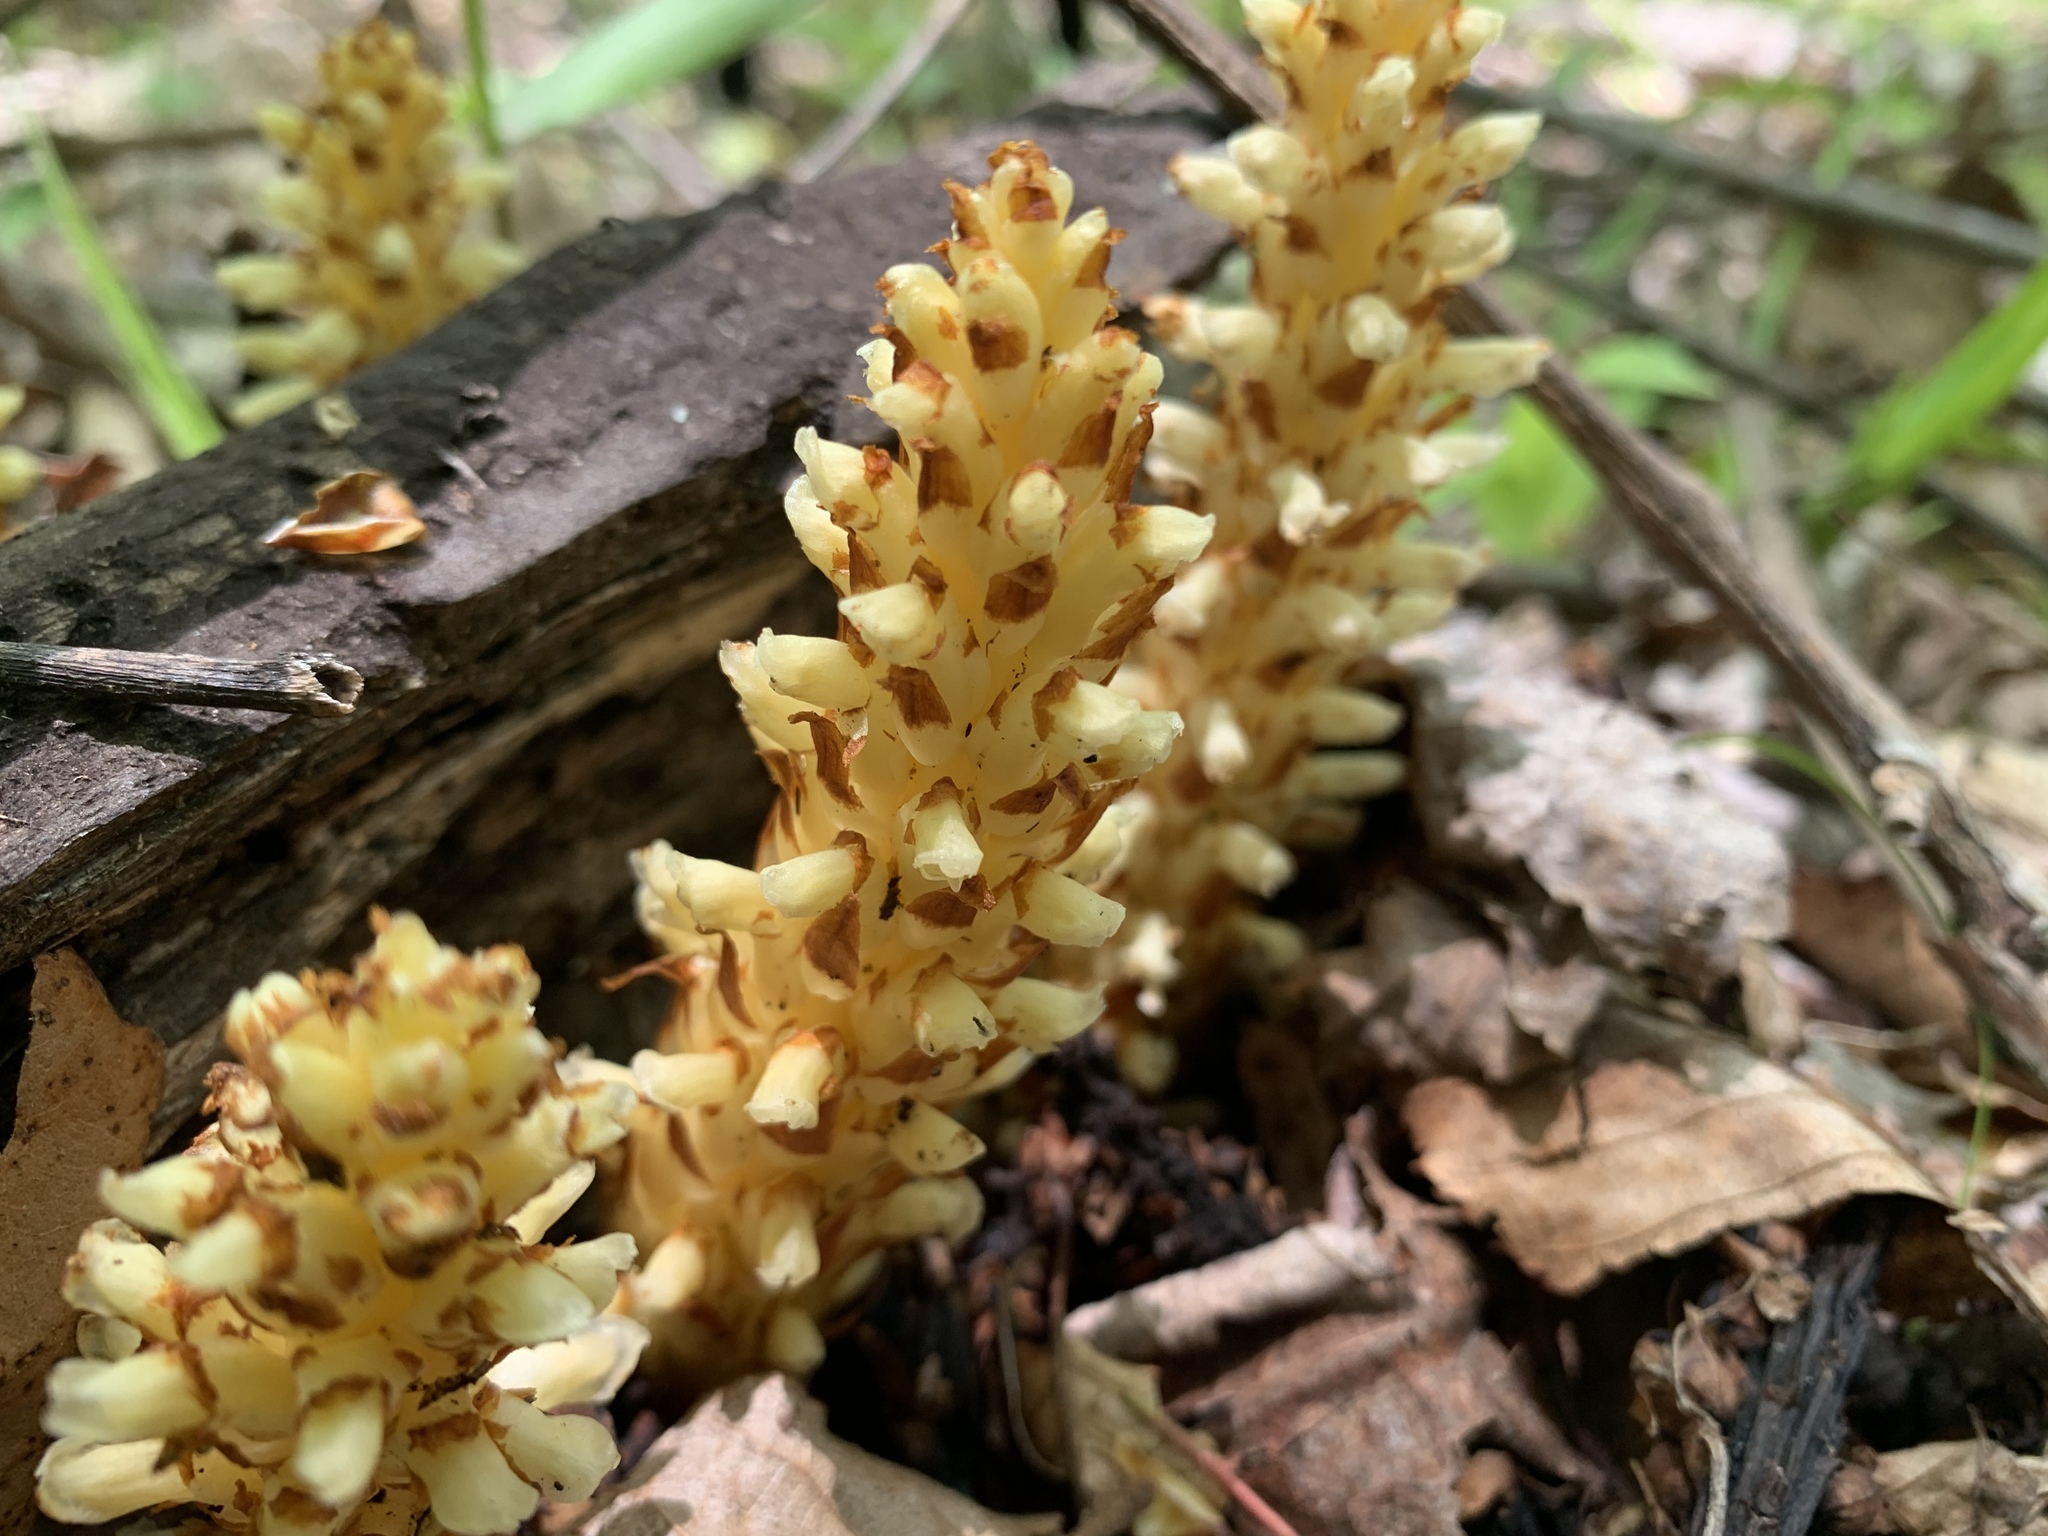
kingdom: Plantae
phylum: Tracheophyta
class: Magnoliopsida
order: Lamiales
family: Orobanchaceae
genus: Conopholis
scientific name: Conopholis americana
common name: American cancer-root
